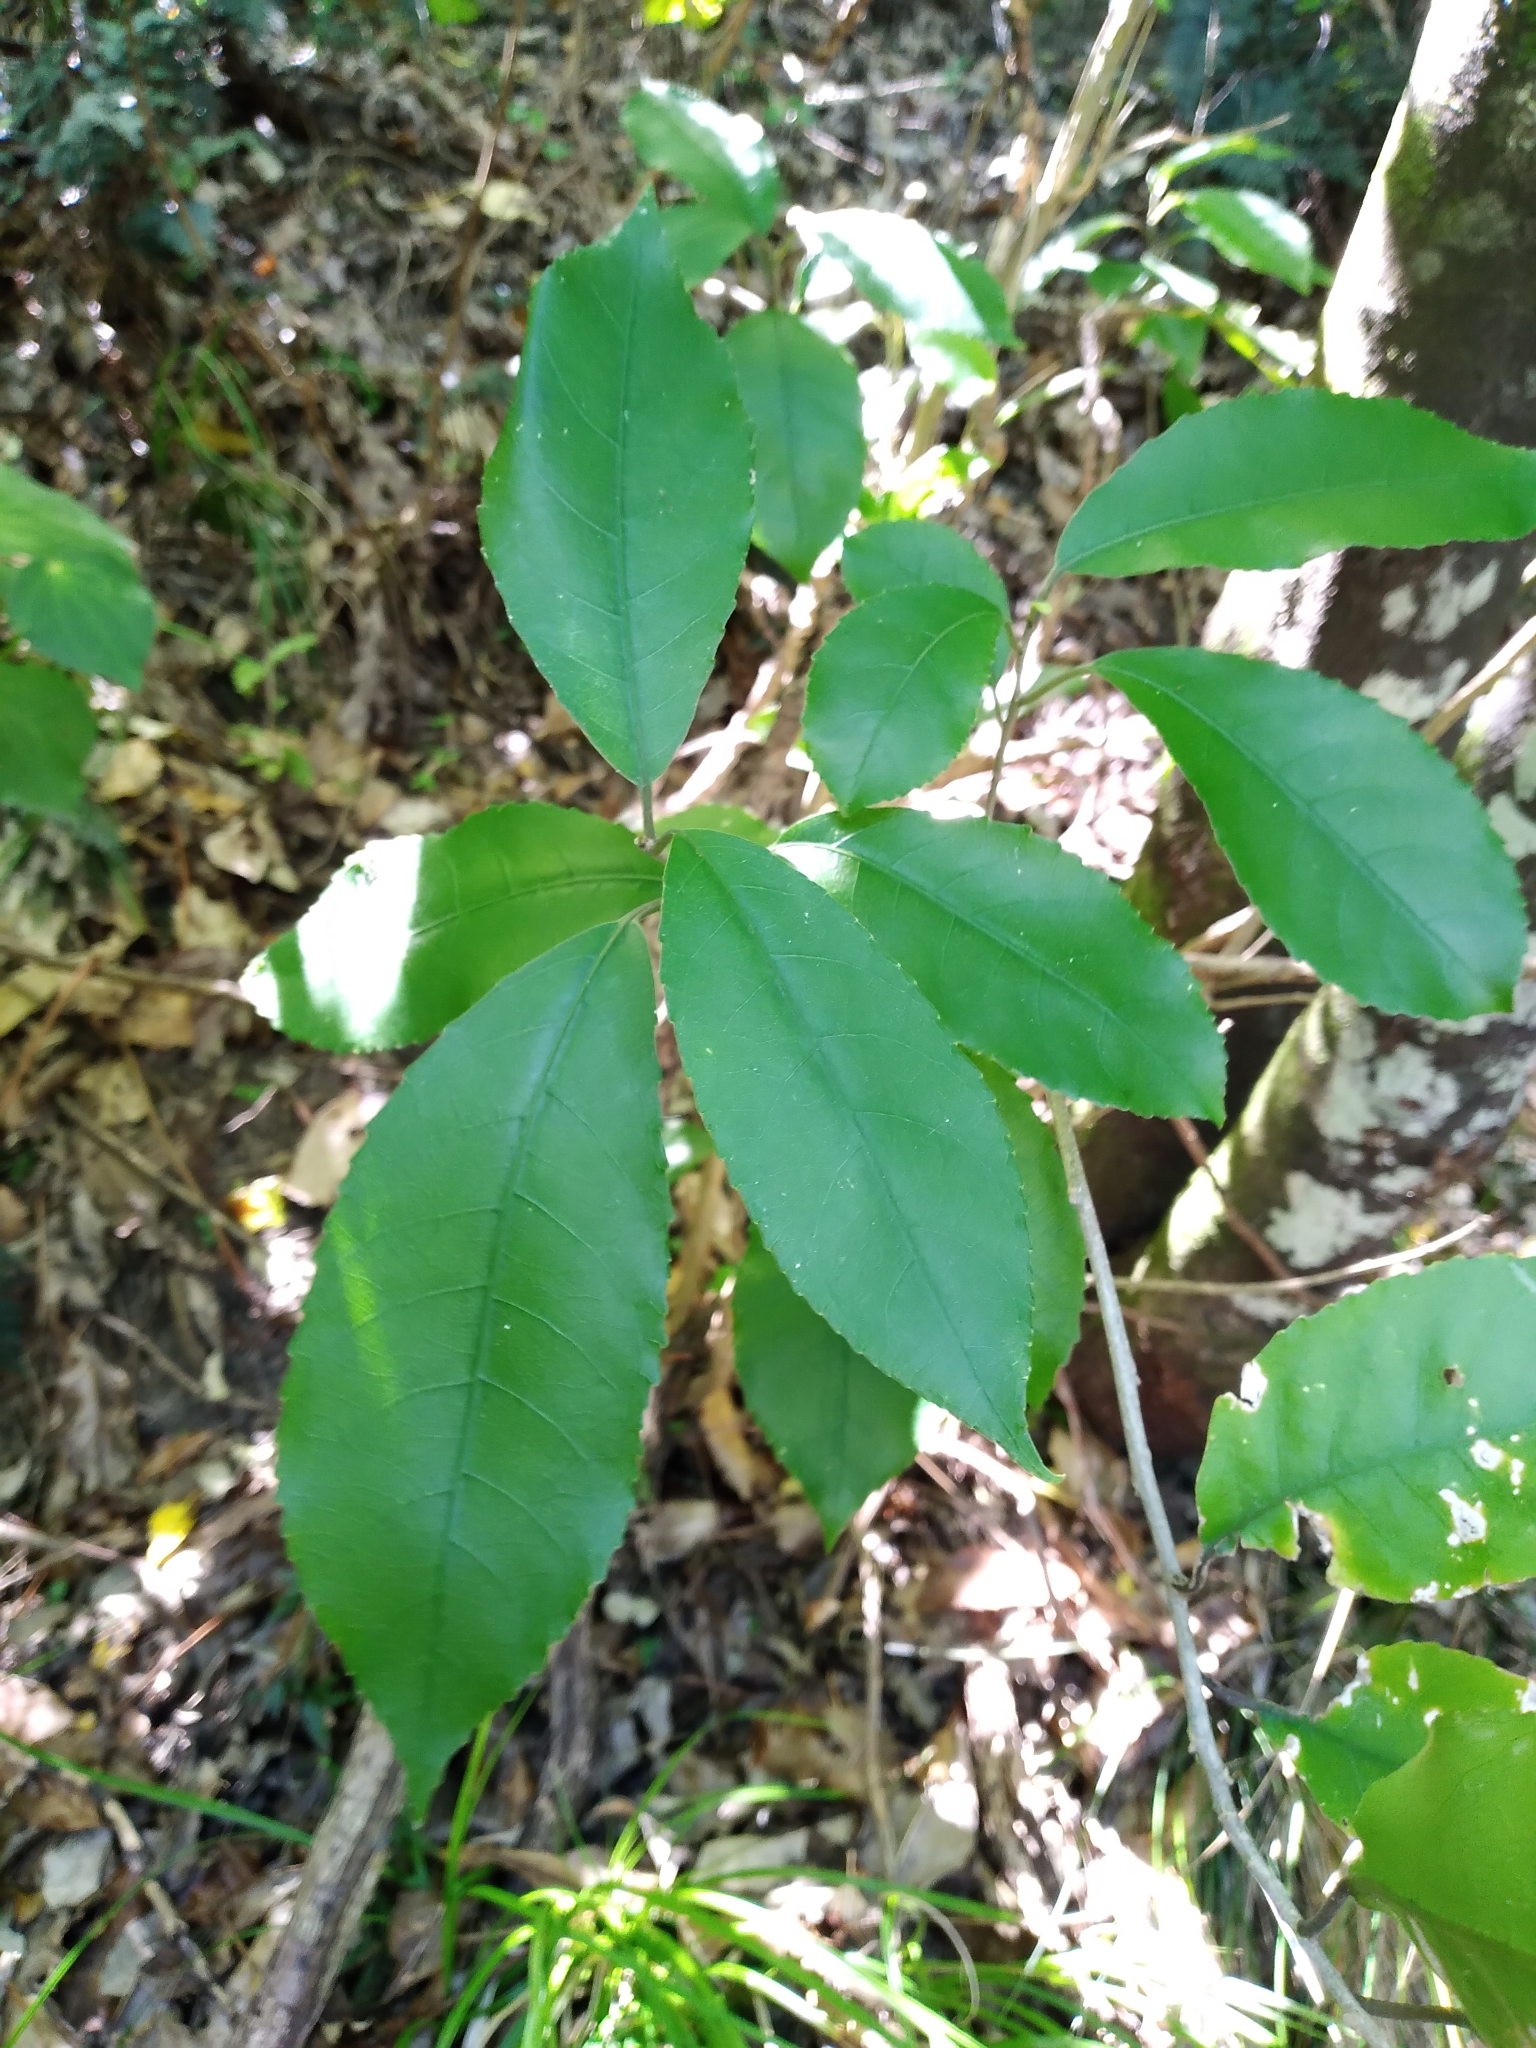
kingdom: Plantae
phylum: Tracheophyta
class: Magnoliopsida
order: Malpighiales
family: Violaceae
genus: Melicytus
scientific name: Melicytus ramiflorus
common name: Mahoe
